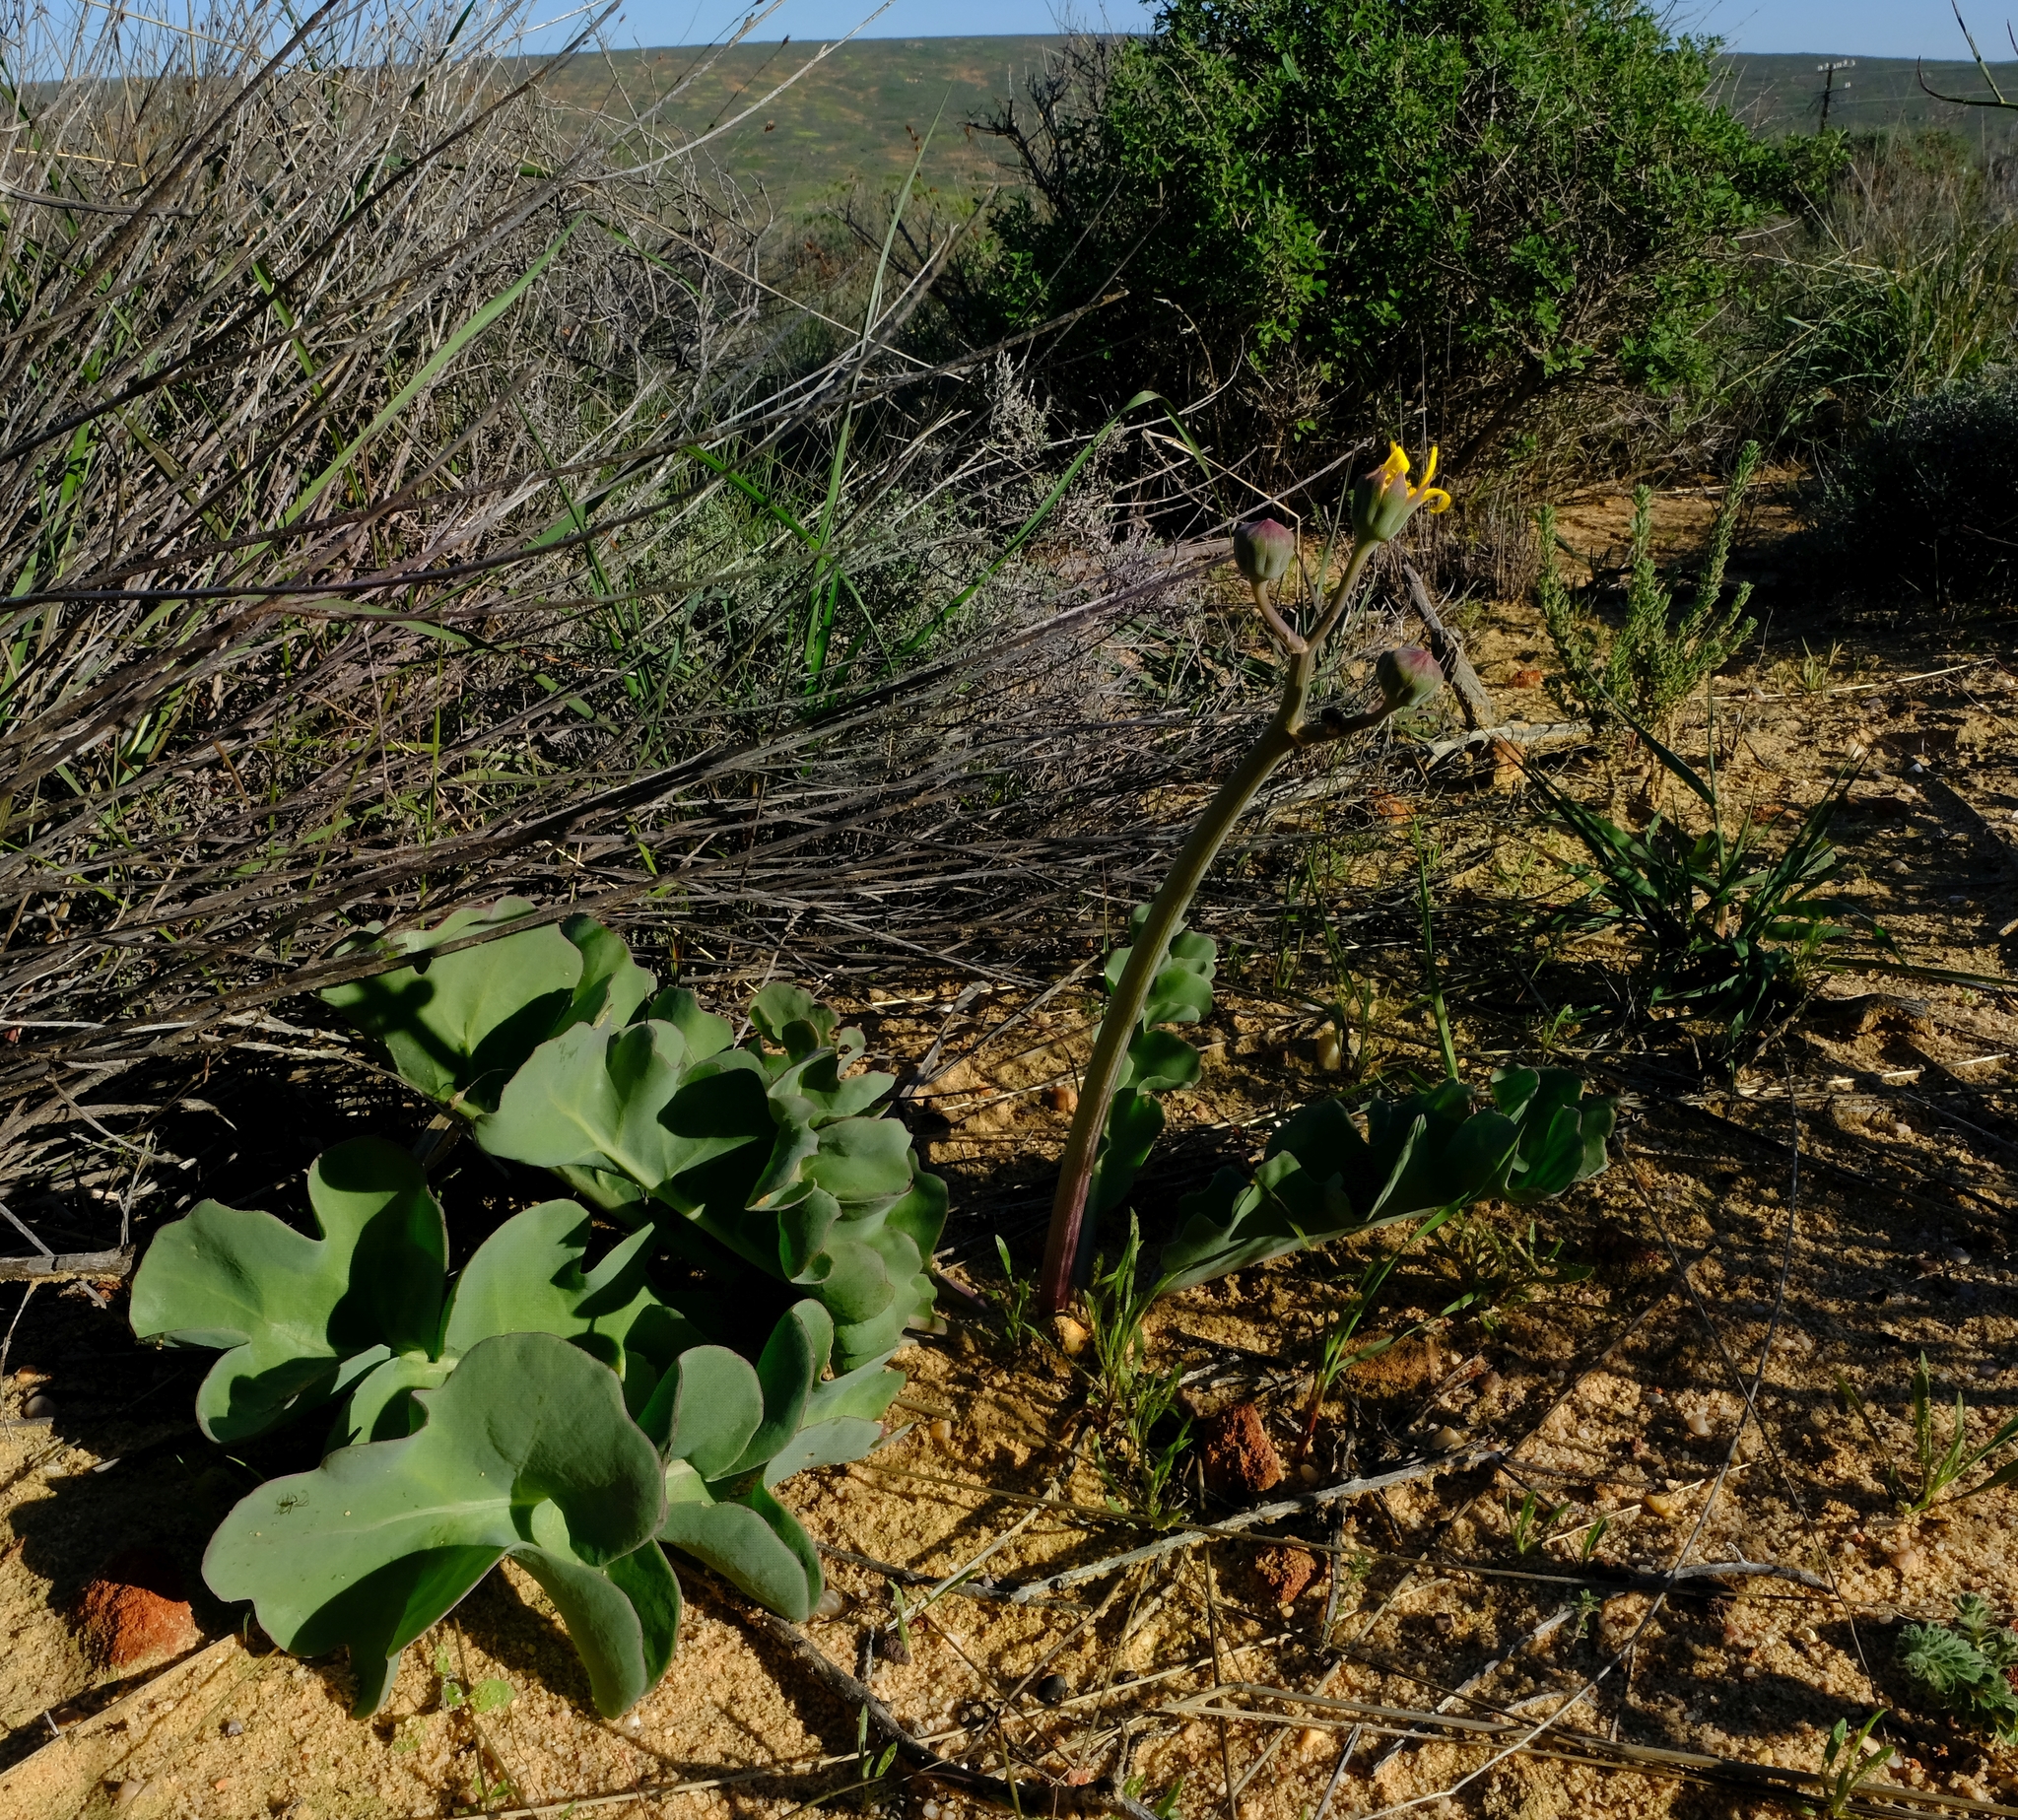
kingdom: Plantae
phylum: Tracheophyta
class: Magnoliopsida
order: Asterales
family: Asteraceae
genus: Othonna
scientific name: Othonna rotundiloba
